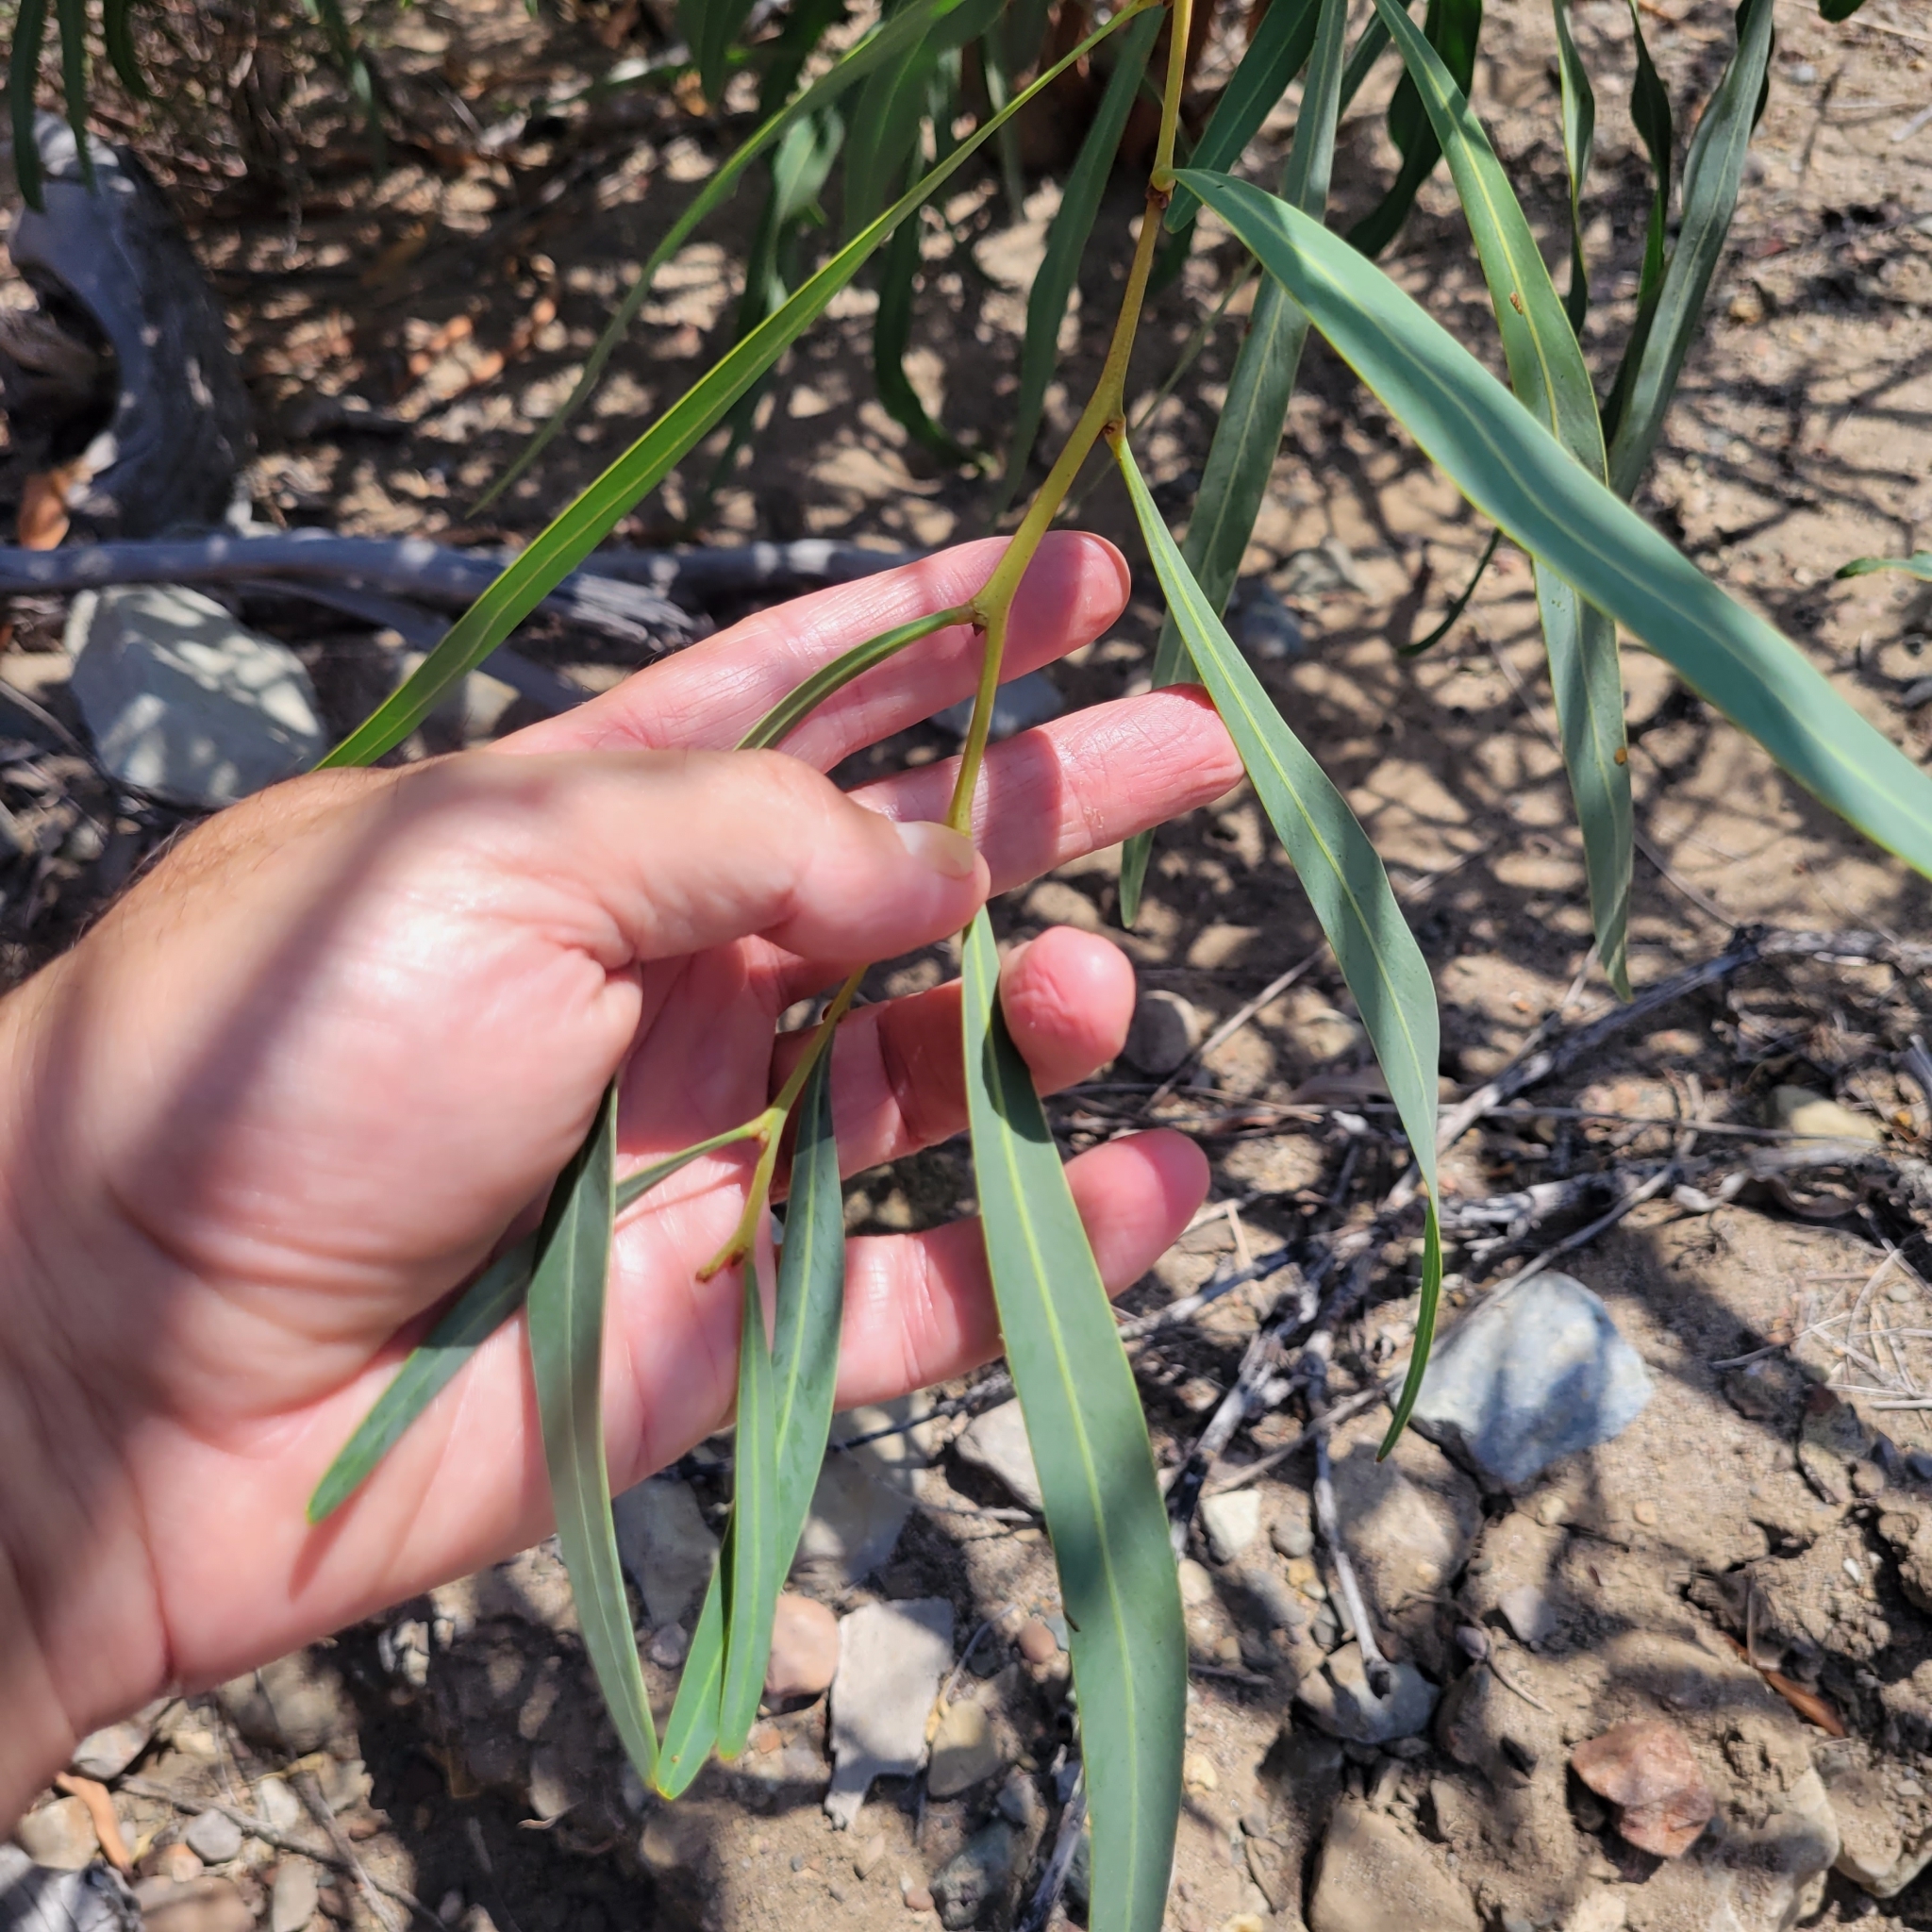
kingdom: Plantae
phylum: Tracheophyta
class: Magnoliopsida
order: Fabales
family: Fabaceae
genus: Acacia
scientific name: Acacia saligna
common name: Orange wattle
